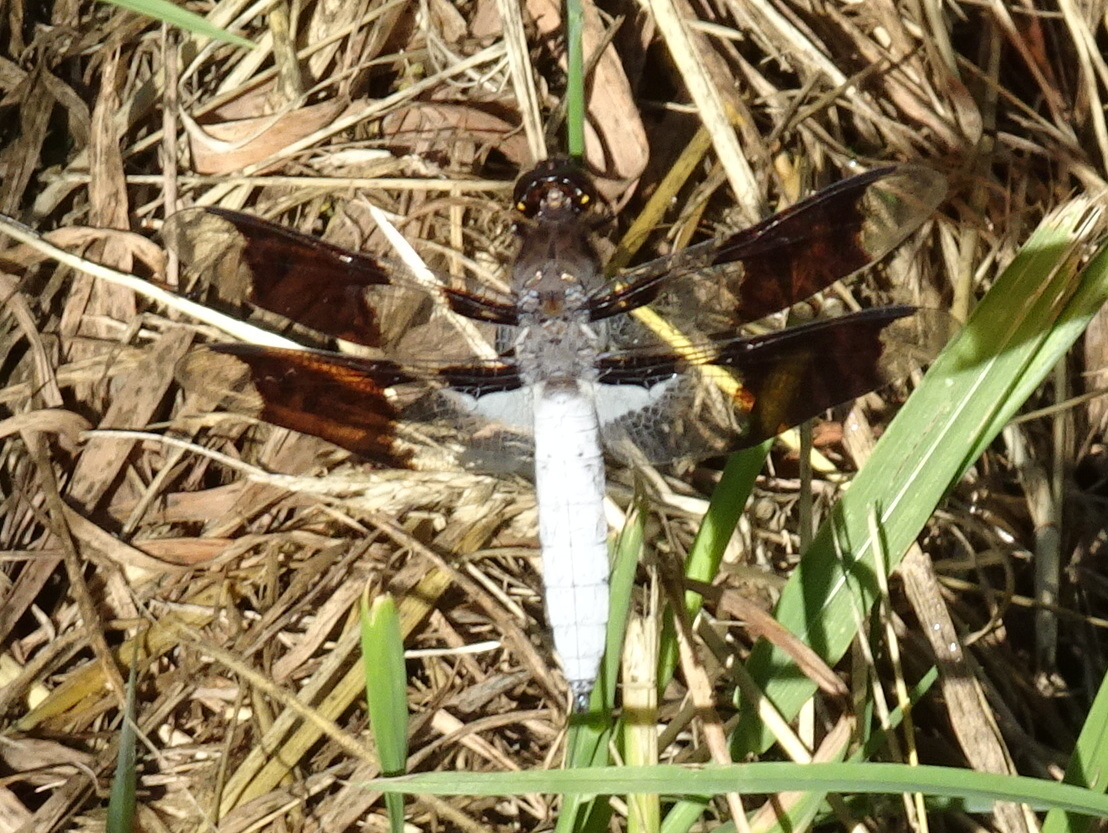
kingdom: Animalia
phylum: Arthropoda
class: Insecta
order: Odonata
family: Libellulidae
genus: Plathemis
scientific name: Plathemis lydia
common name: Common whitetail
